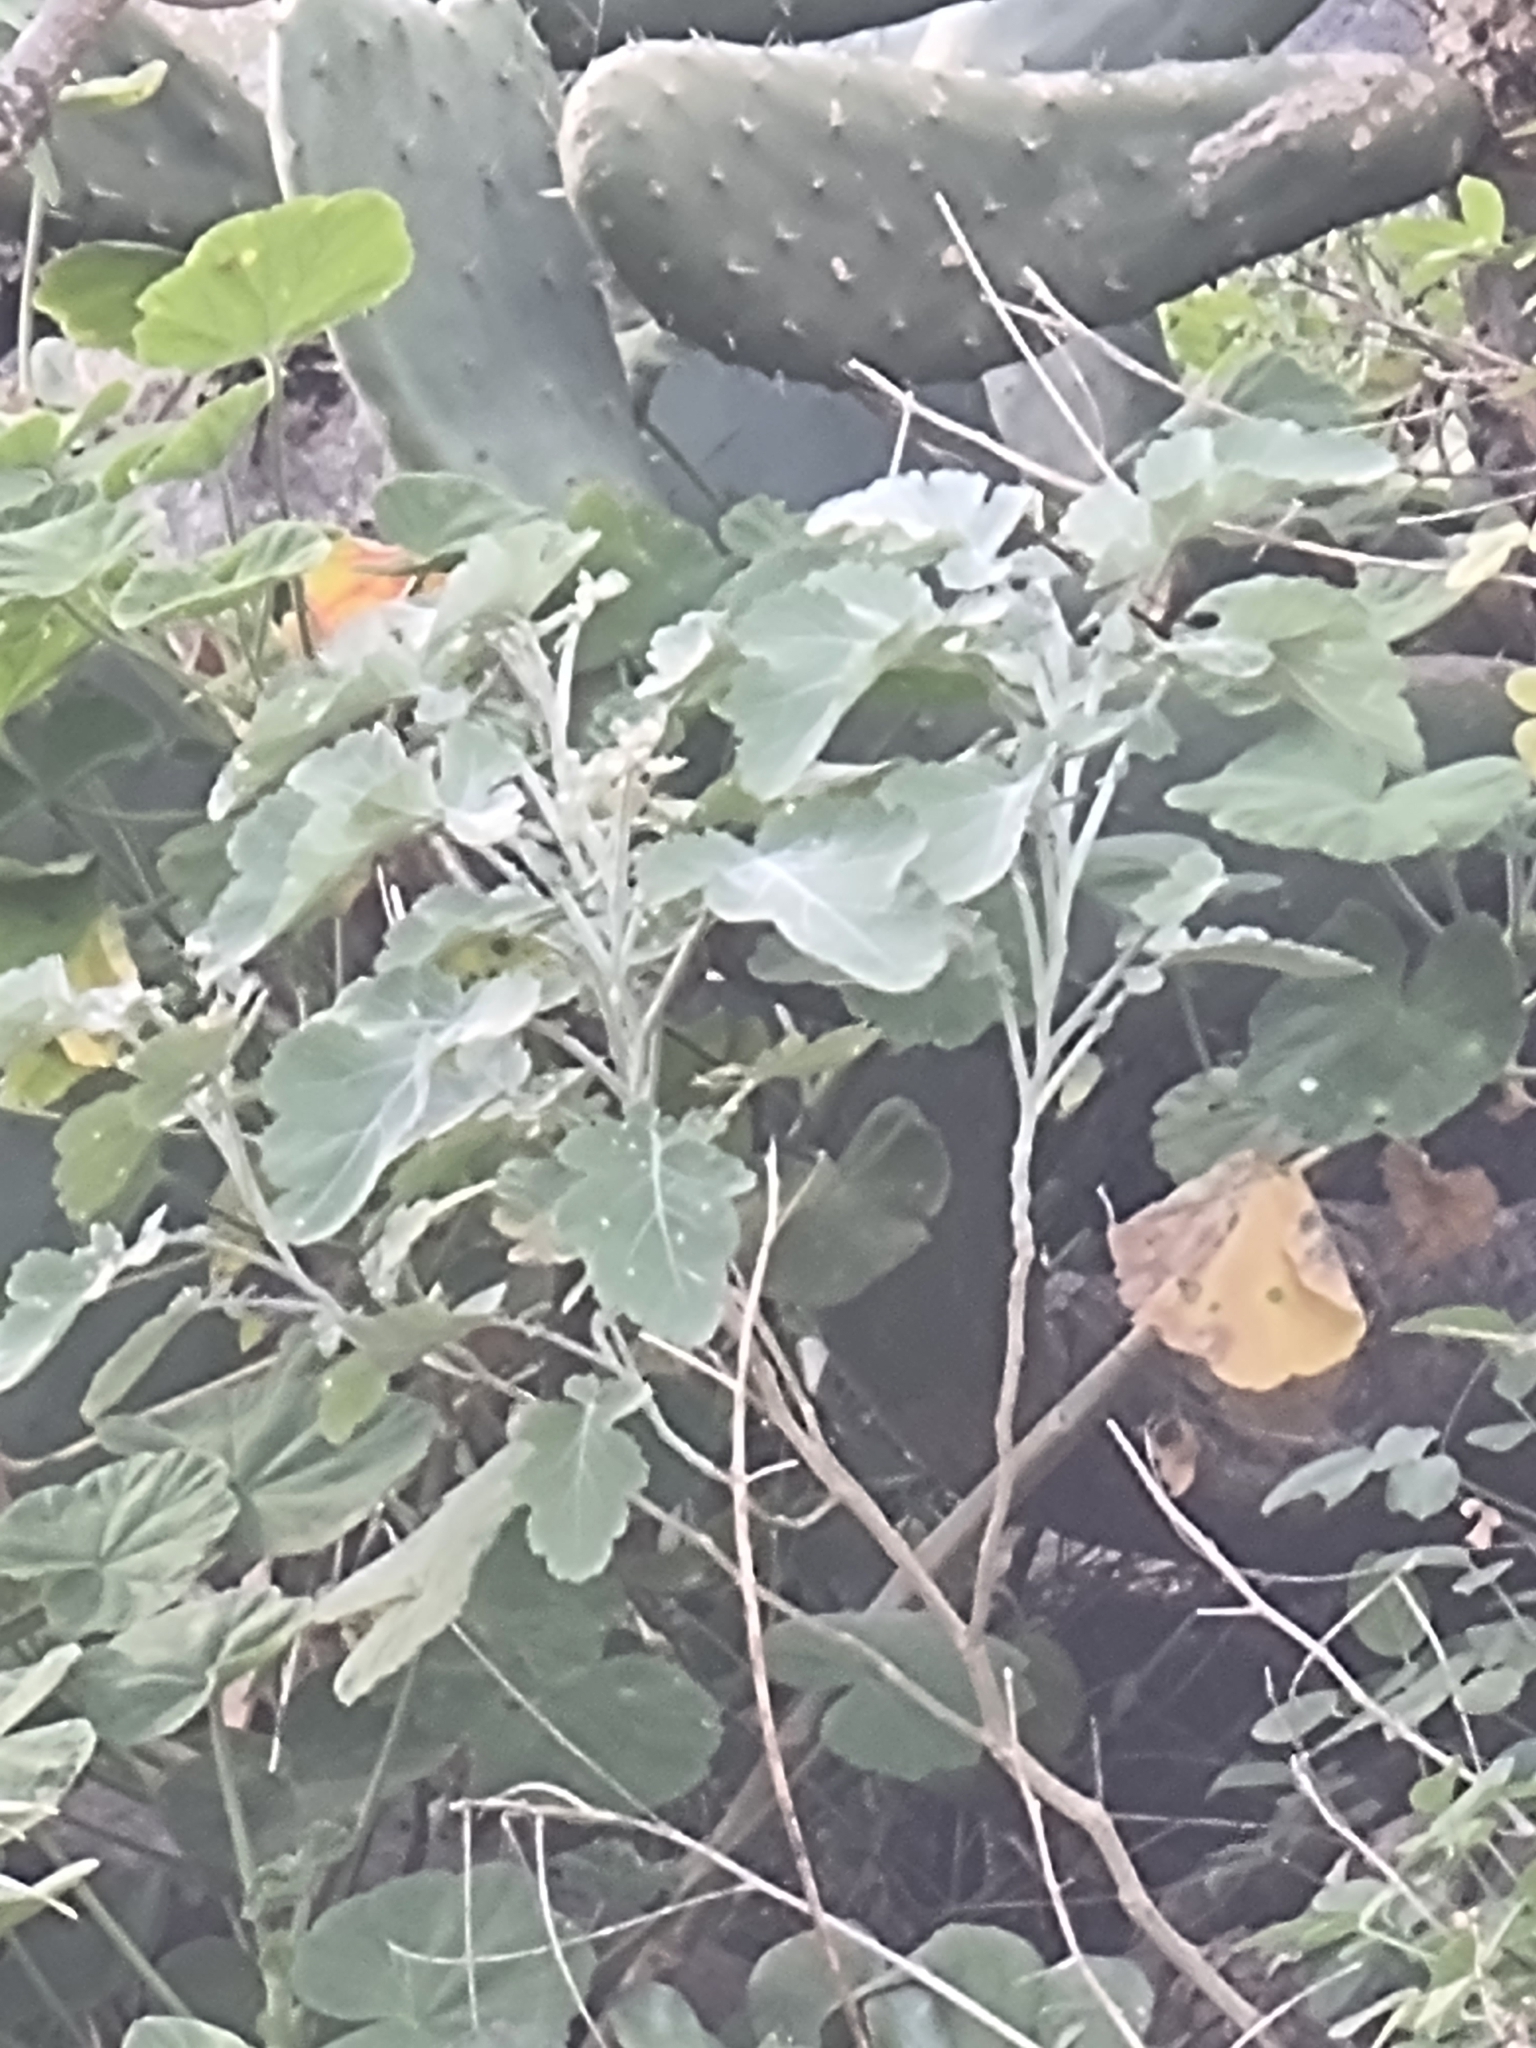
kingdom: Plantae
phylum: Tracheophyta
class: Magnoliopsida
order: Brassicales
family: Brassicaceae
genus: Crambe
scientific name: Crambe fruticosa
